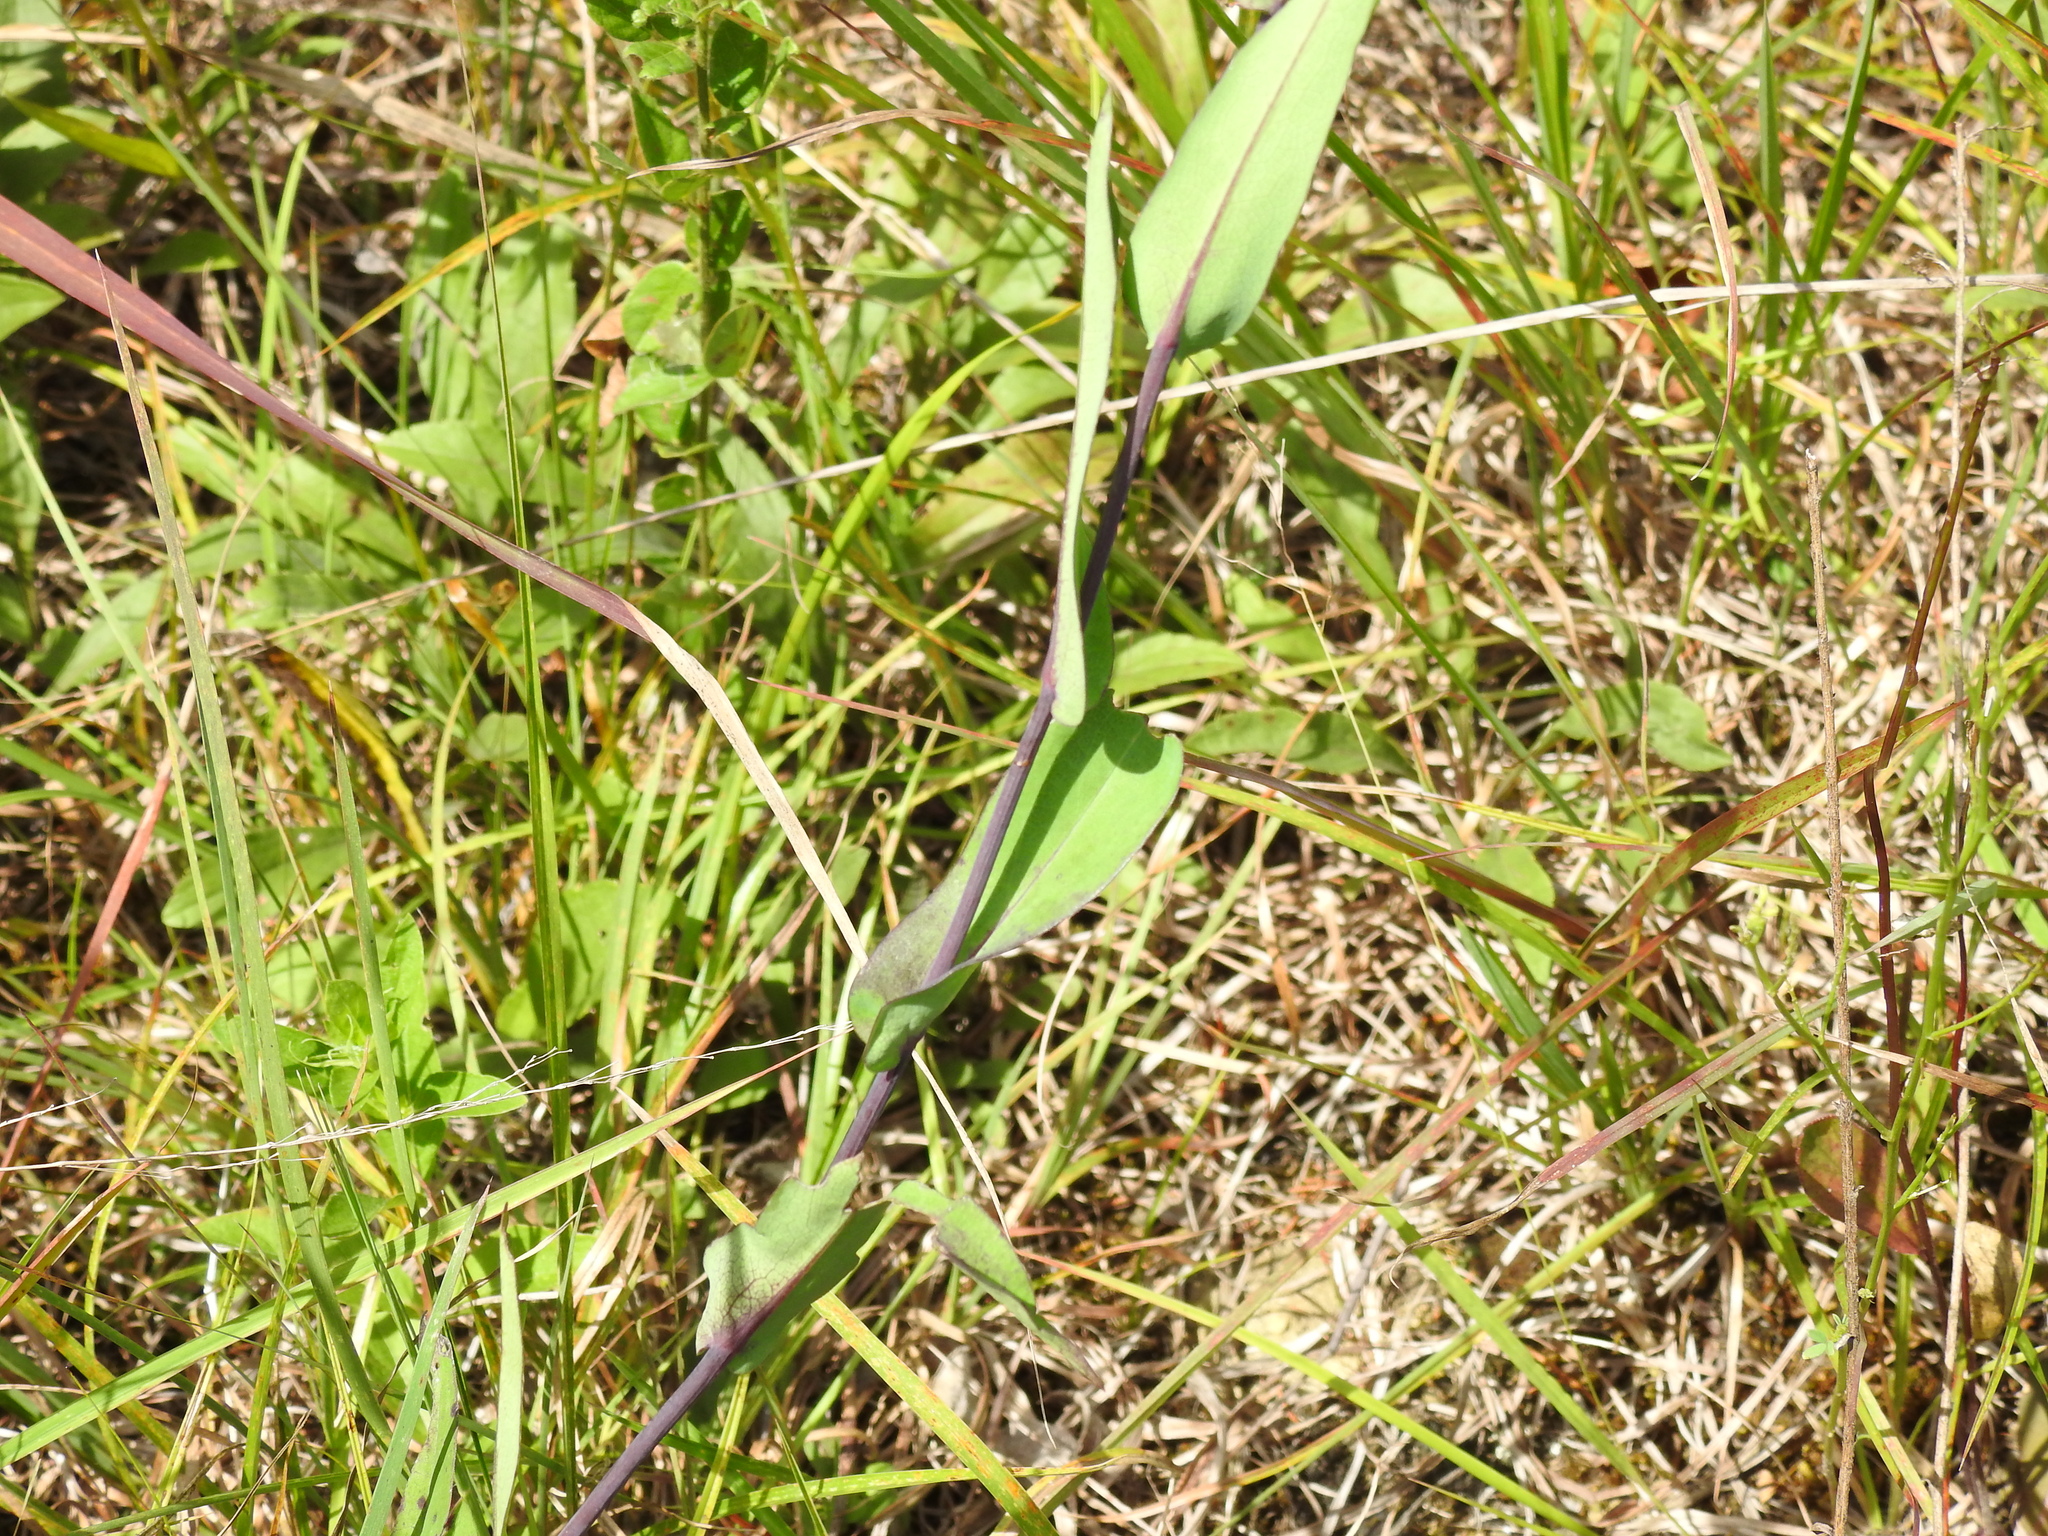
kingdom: Plantae
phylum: Tracheophyta
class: Magnoliopsida
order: Asterales
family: Asteraceae
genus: Symphyotrichum
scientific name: Symphyotrichum laeve
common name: Glaucous aster
